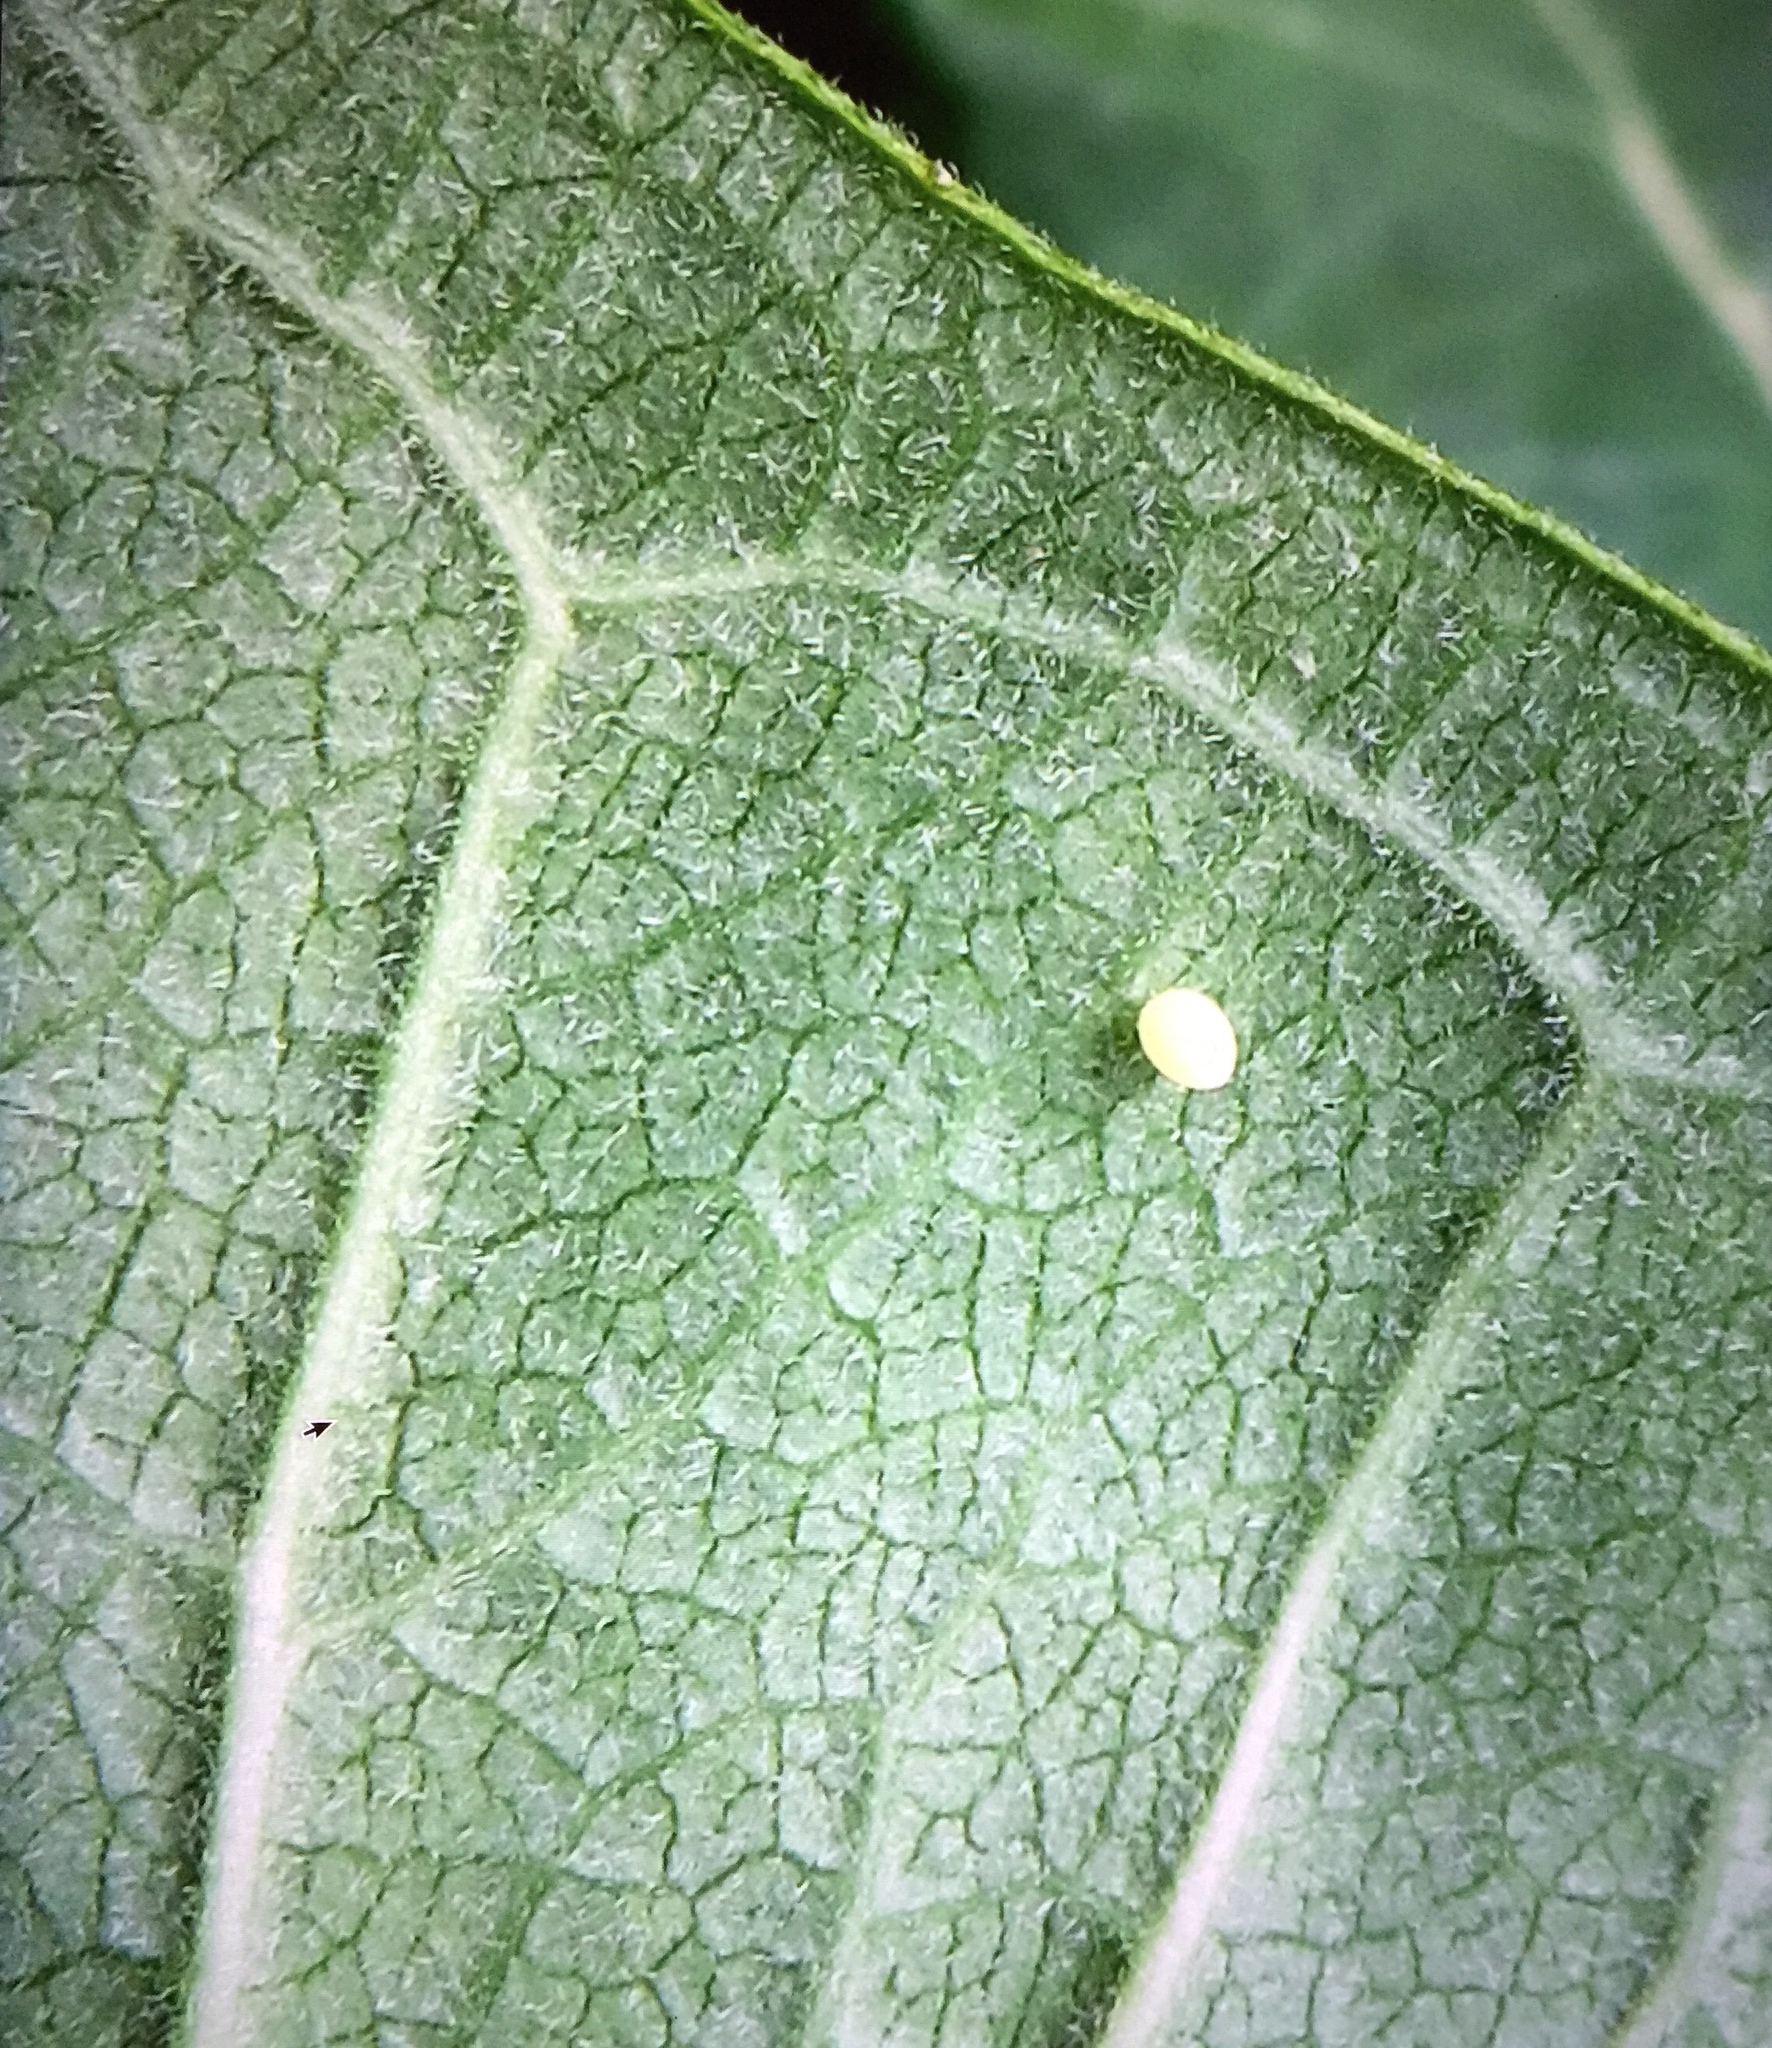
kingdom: Animalia
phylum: Arthropoda
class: Insecta
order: Lepidoptera
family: Nymphalidae
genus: Danaus
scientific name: Danaus plexippus
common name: Monarch
